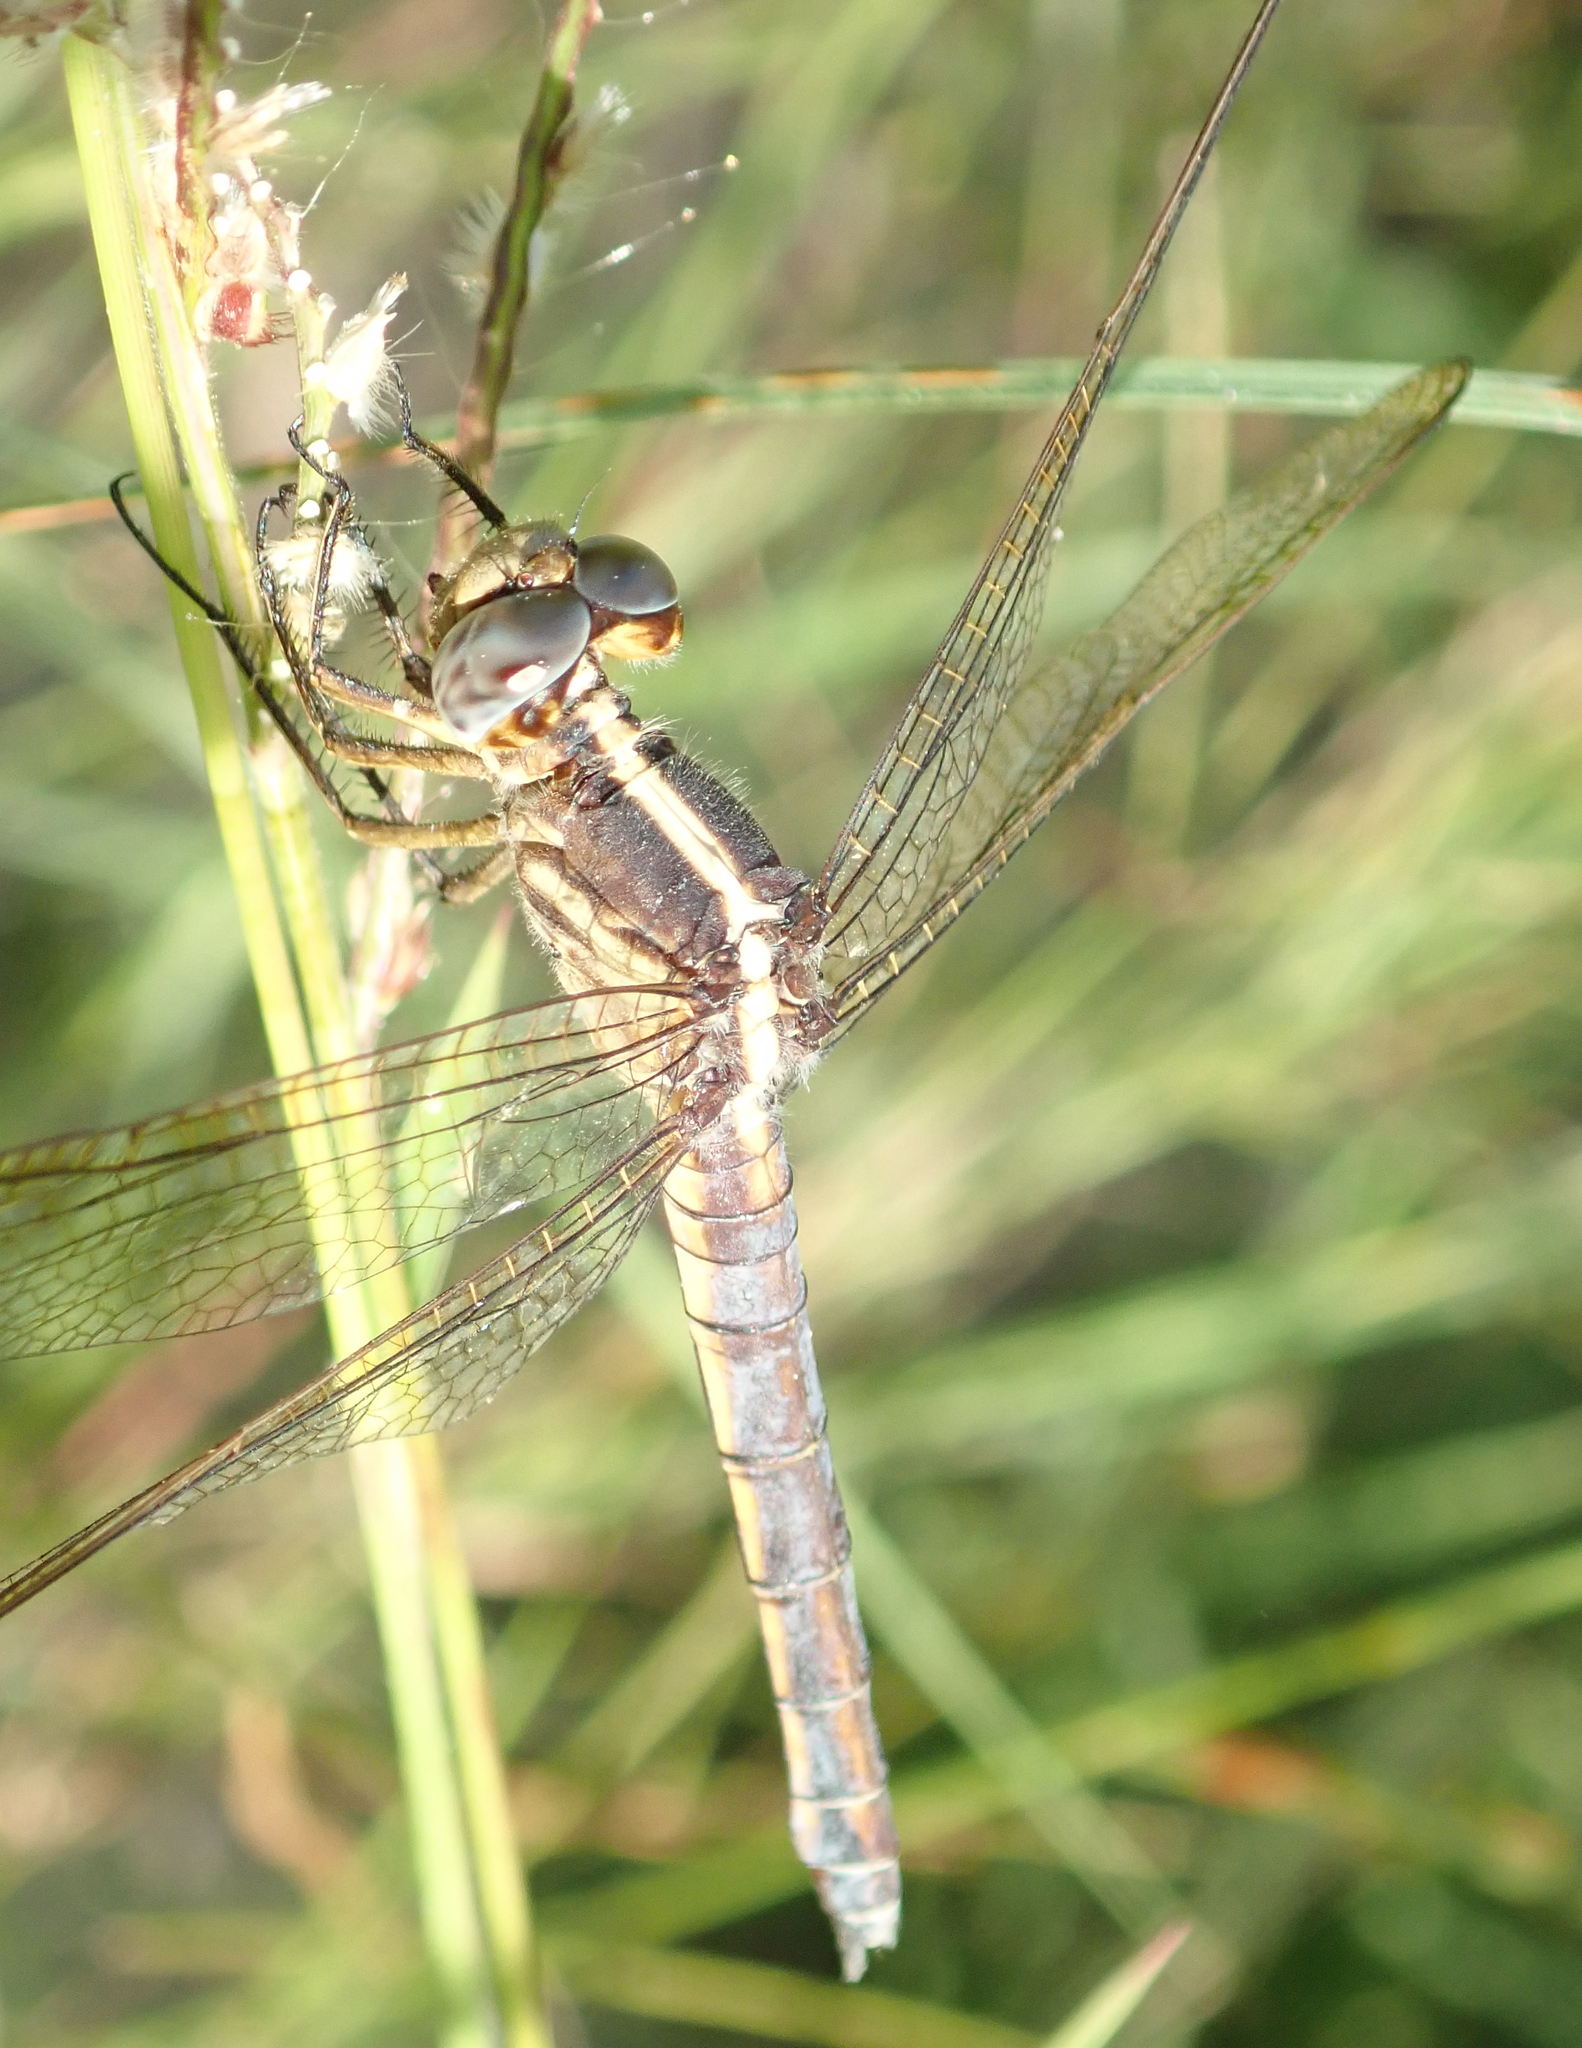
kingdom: Animalia
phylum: Arthropoda
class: Insecta
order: Odonata
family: Libellulidae
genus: Nesciothemis
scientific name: Nesciothemis farinosa
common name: Eastern blacktail
